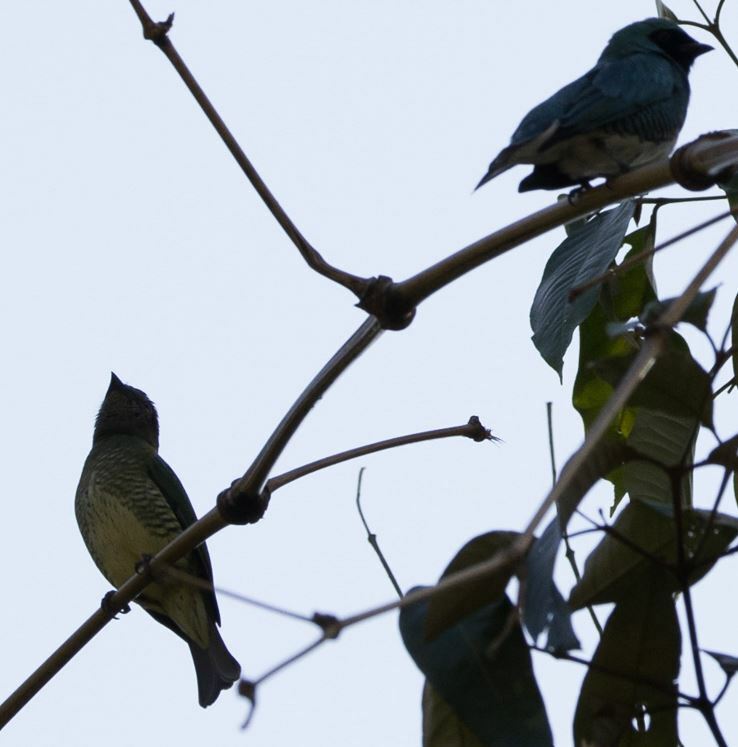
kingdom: Animalia
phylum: Chordata
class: Aves
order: Passeriformes
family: Thraupidae
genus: Tersina
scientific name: Tersina viridis
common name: Swallow tanager
